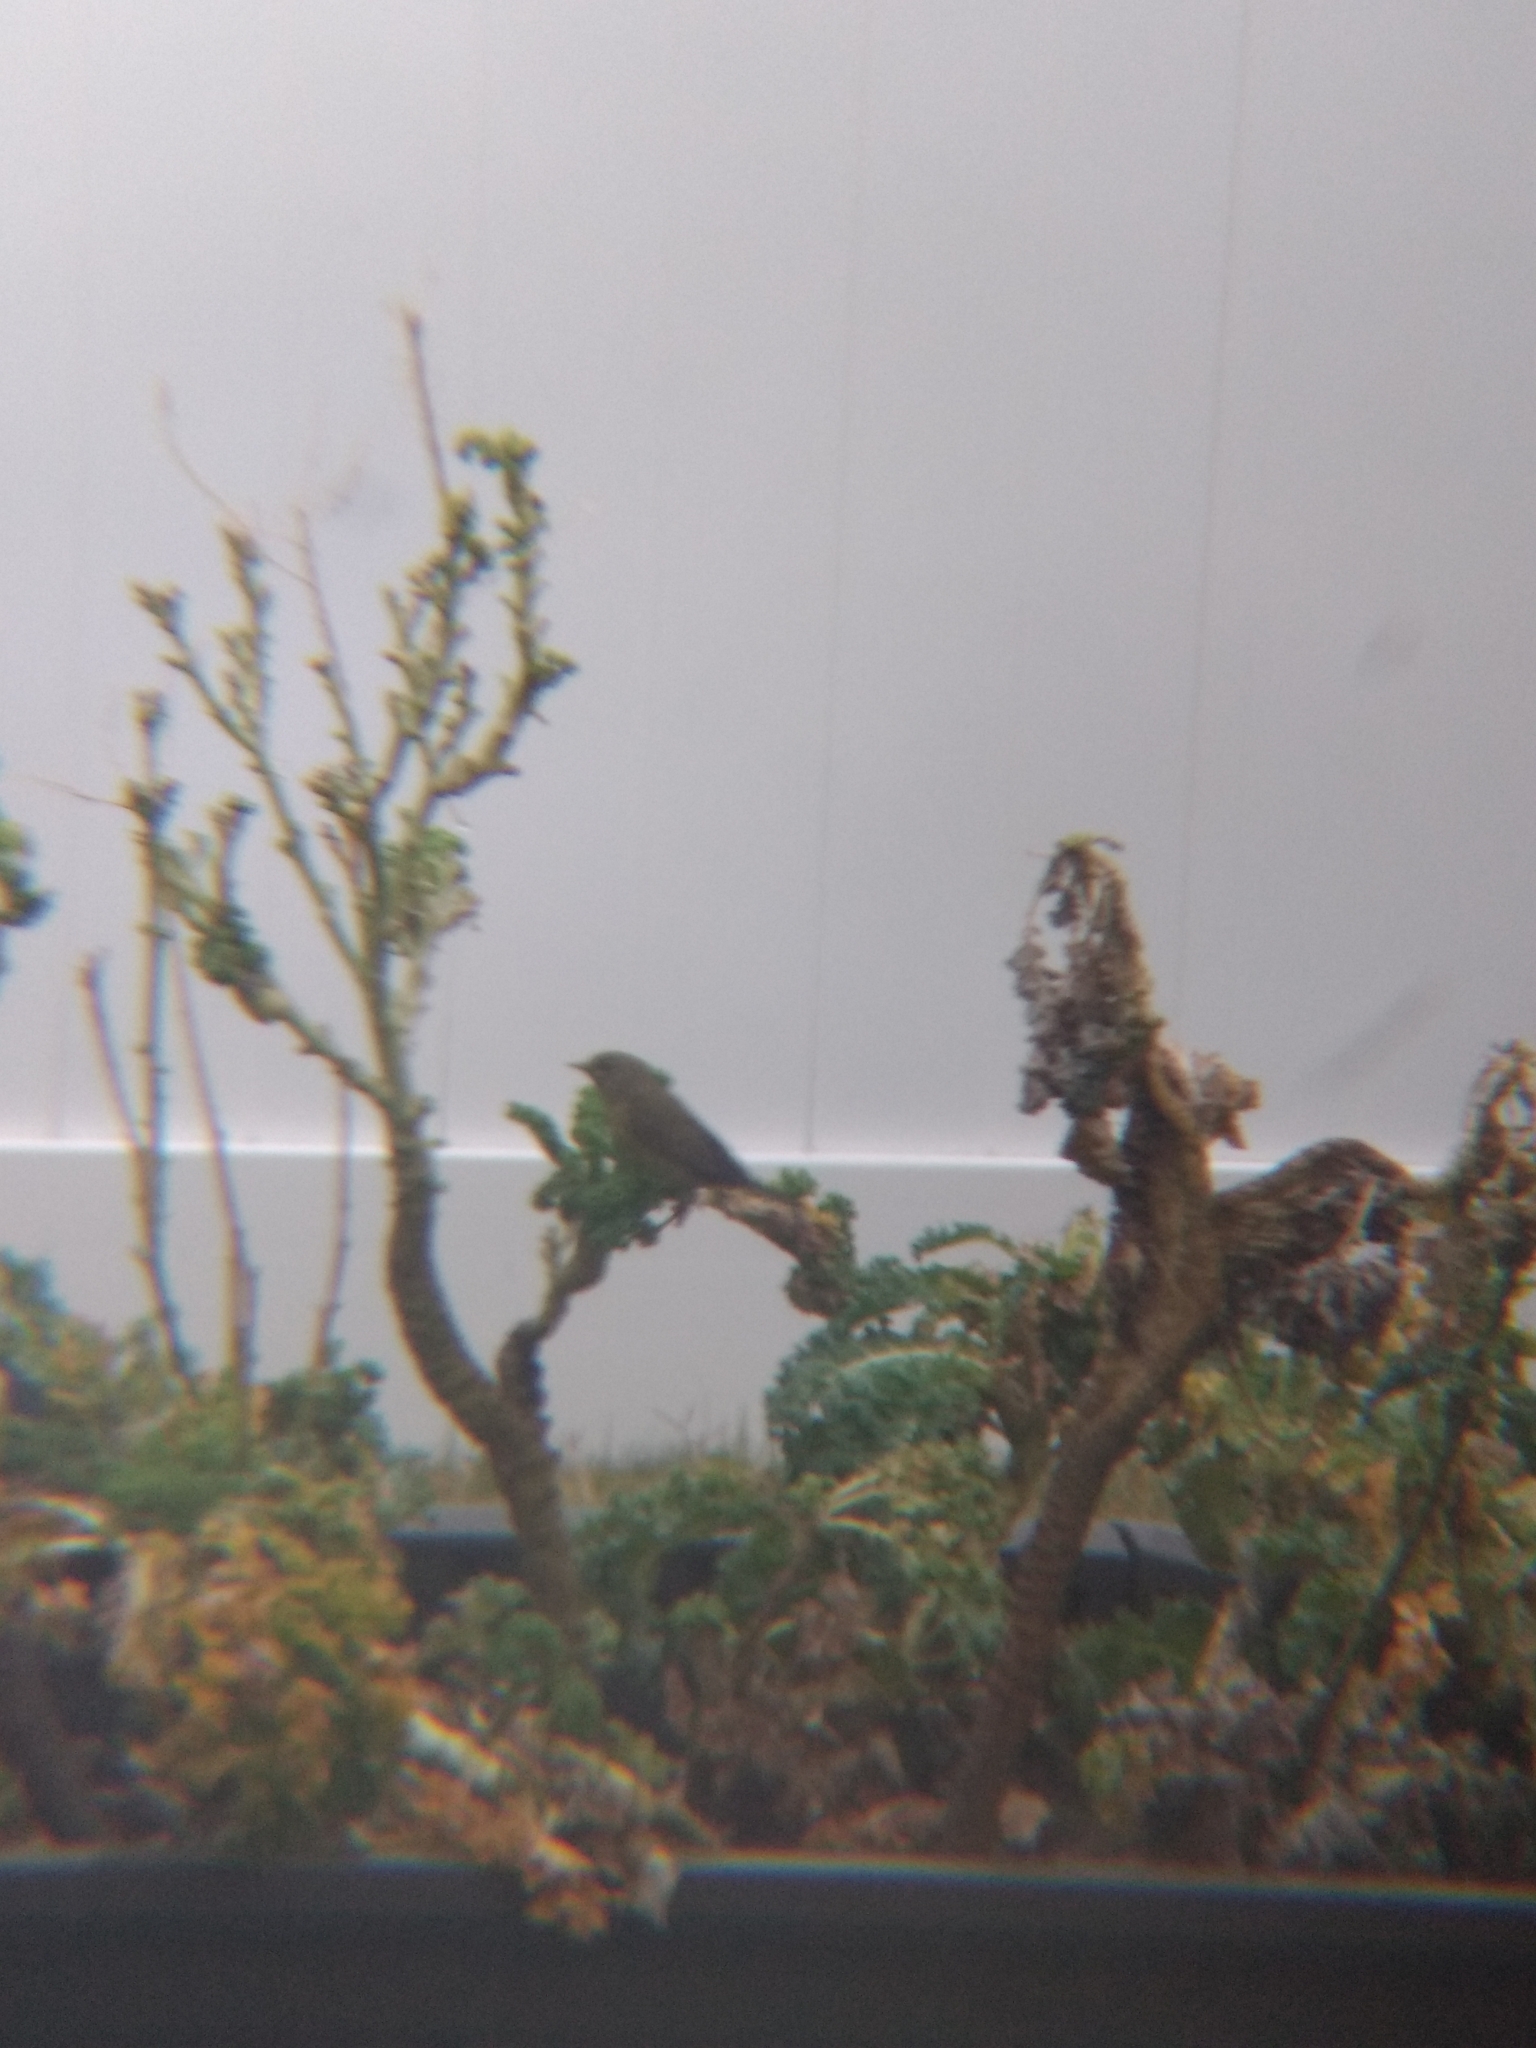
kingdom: Animalia
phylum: Chordata
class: Aves
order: Passeriformes
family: Parulidae
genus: Leiothlypis
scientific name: Leiothlypis celata
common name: Orange-crowned warbler
